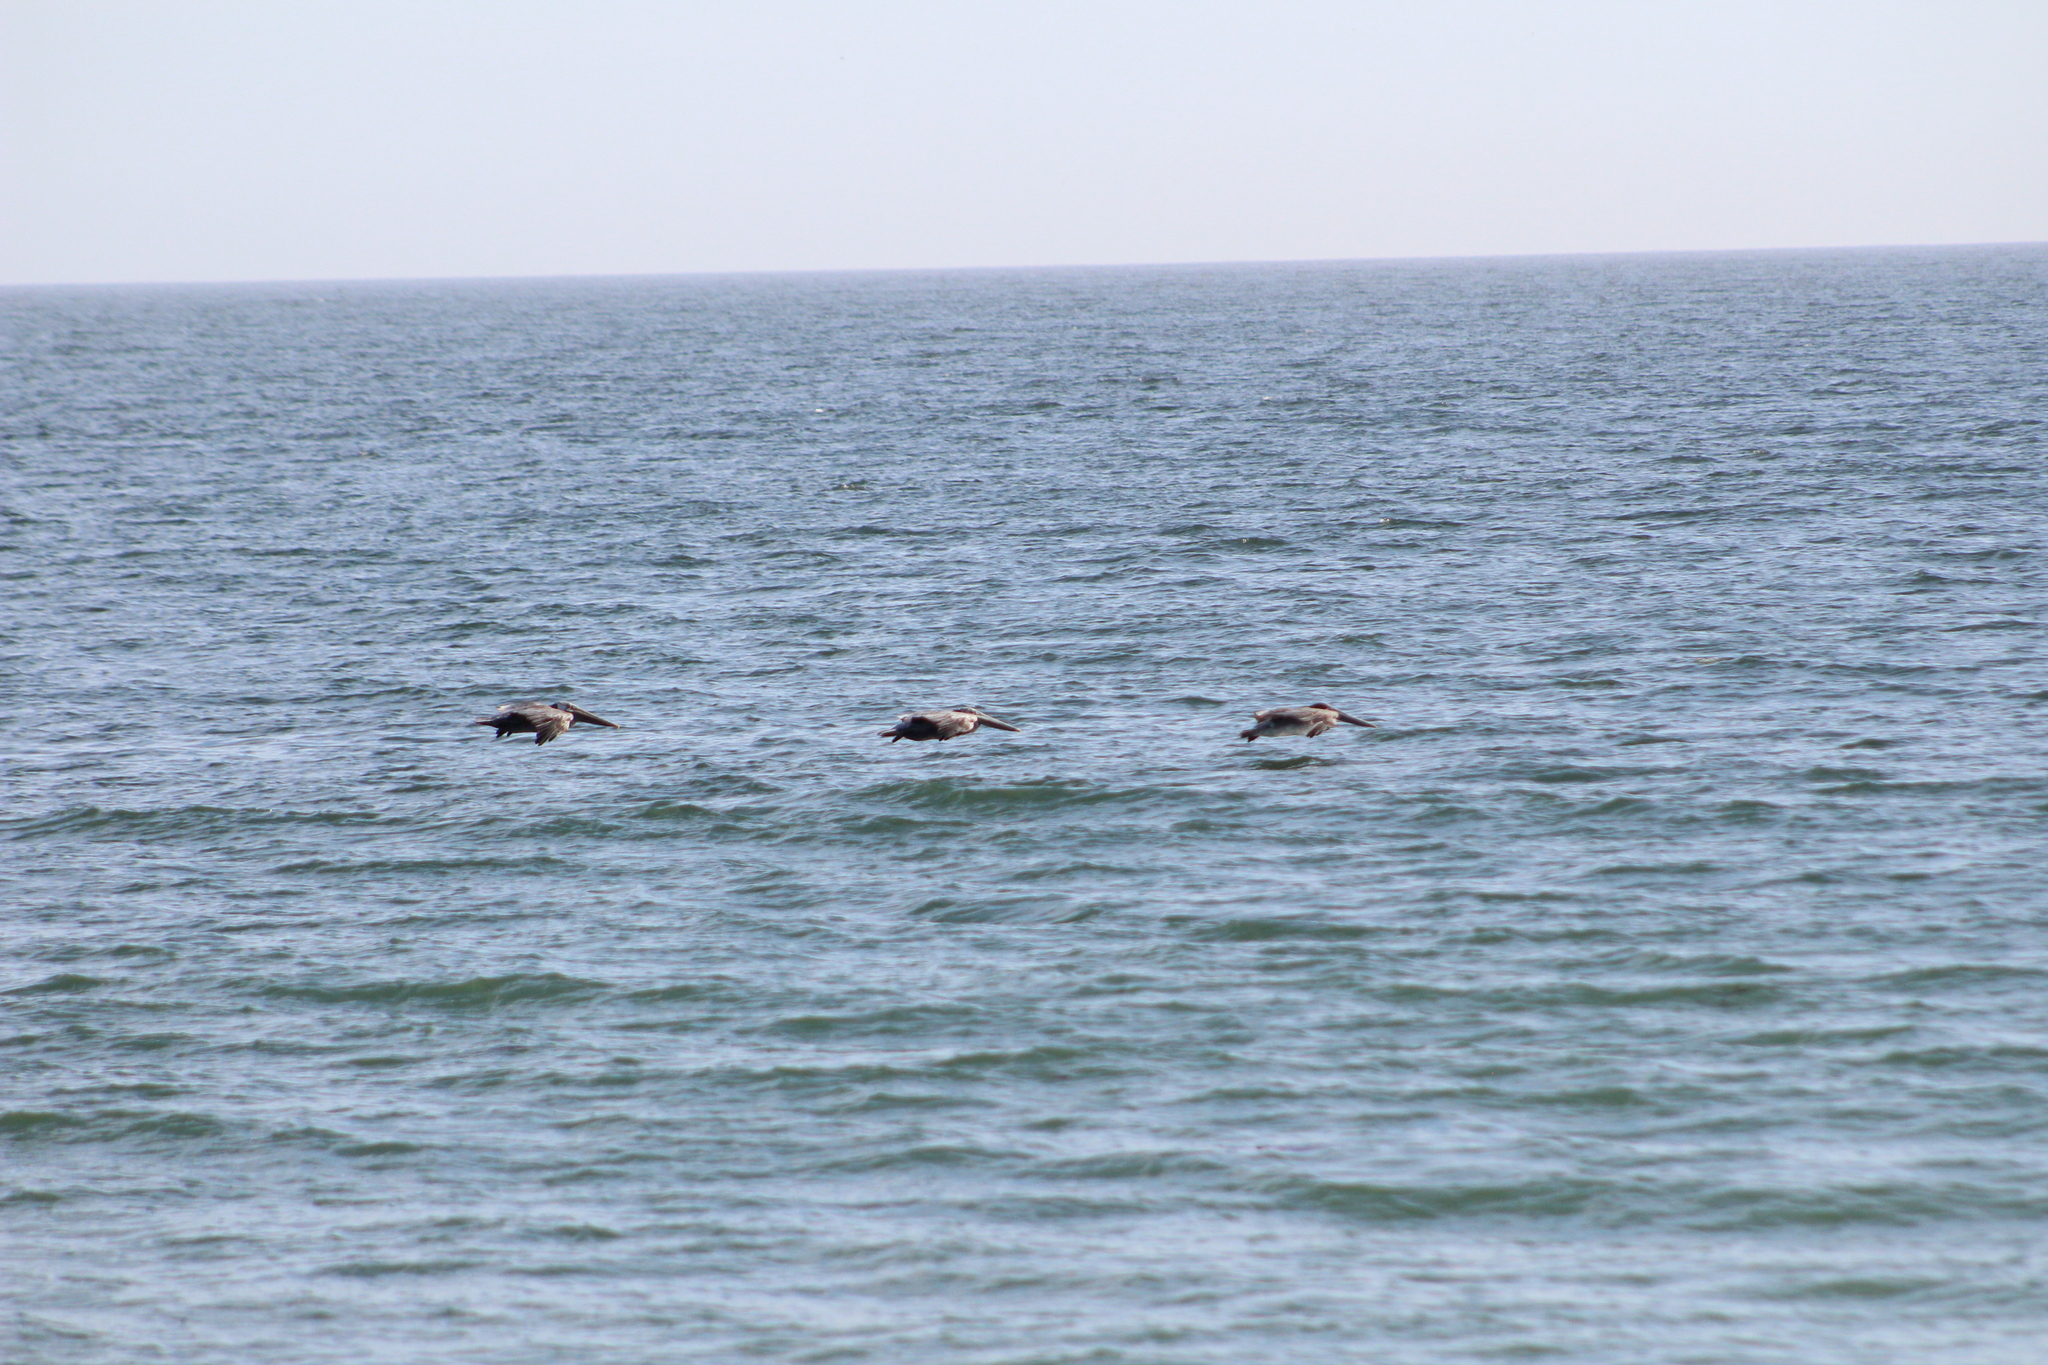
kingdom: Animalia
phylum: Chordata
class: Aves
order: Pelecaniformes
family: Pelecanidae
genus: Pelecanus
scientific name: Pelecanus occidentalis
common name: Brown pelican
